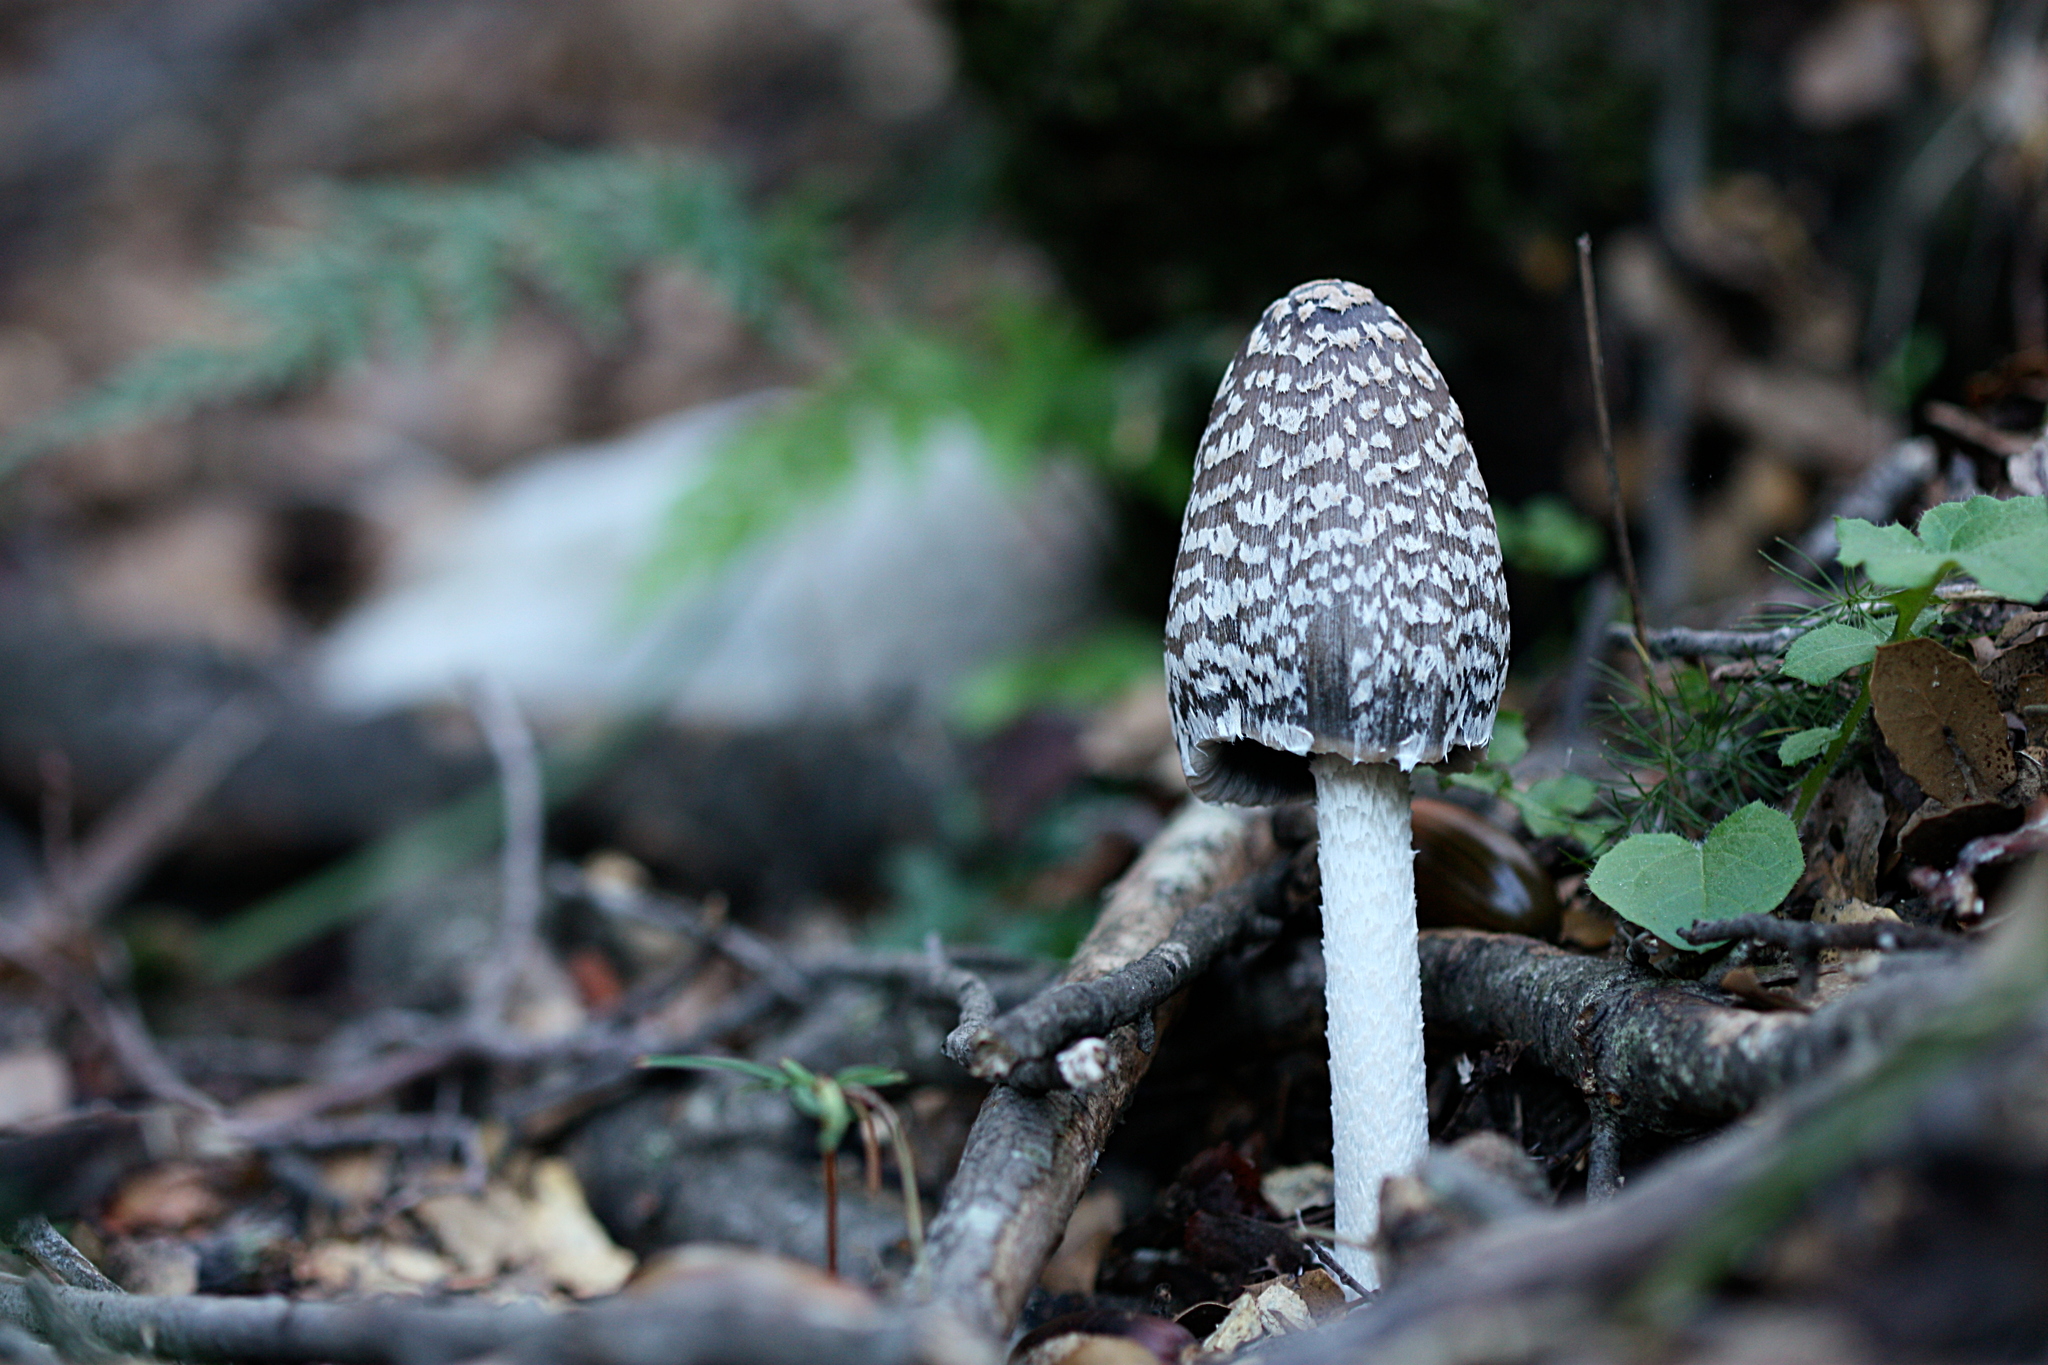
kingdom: Fungi
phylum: Basidiomycota
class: Agaricomycetes
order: Agaricales
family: Psathyrellaceae
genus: Coprinopsis
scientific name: Coprinopsis picacea
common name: Magpie inkcap
